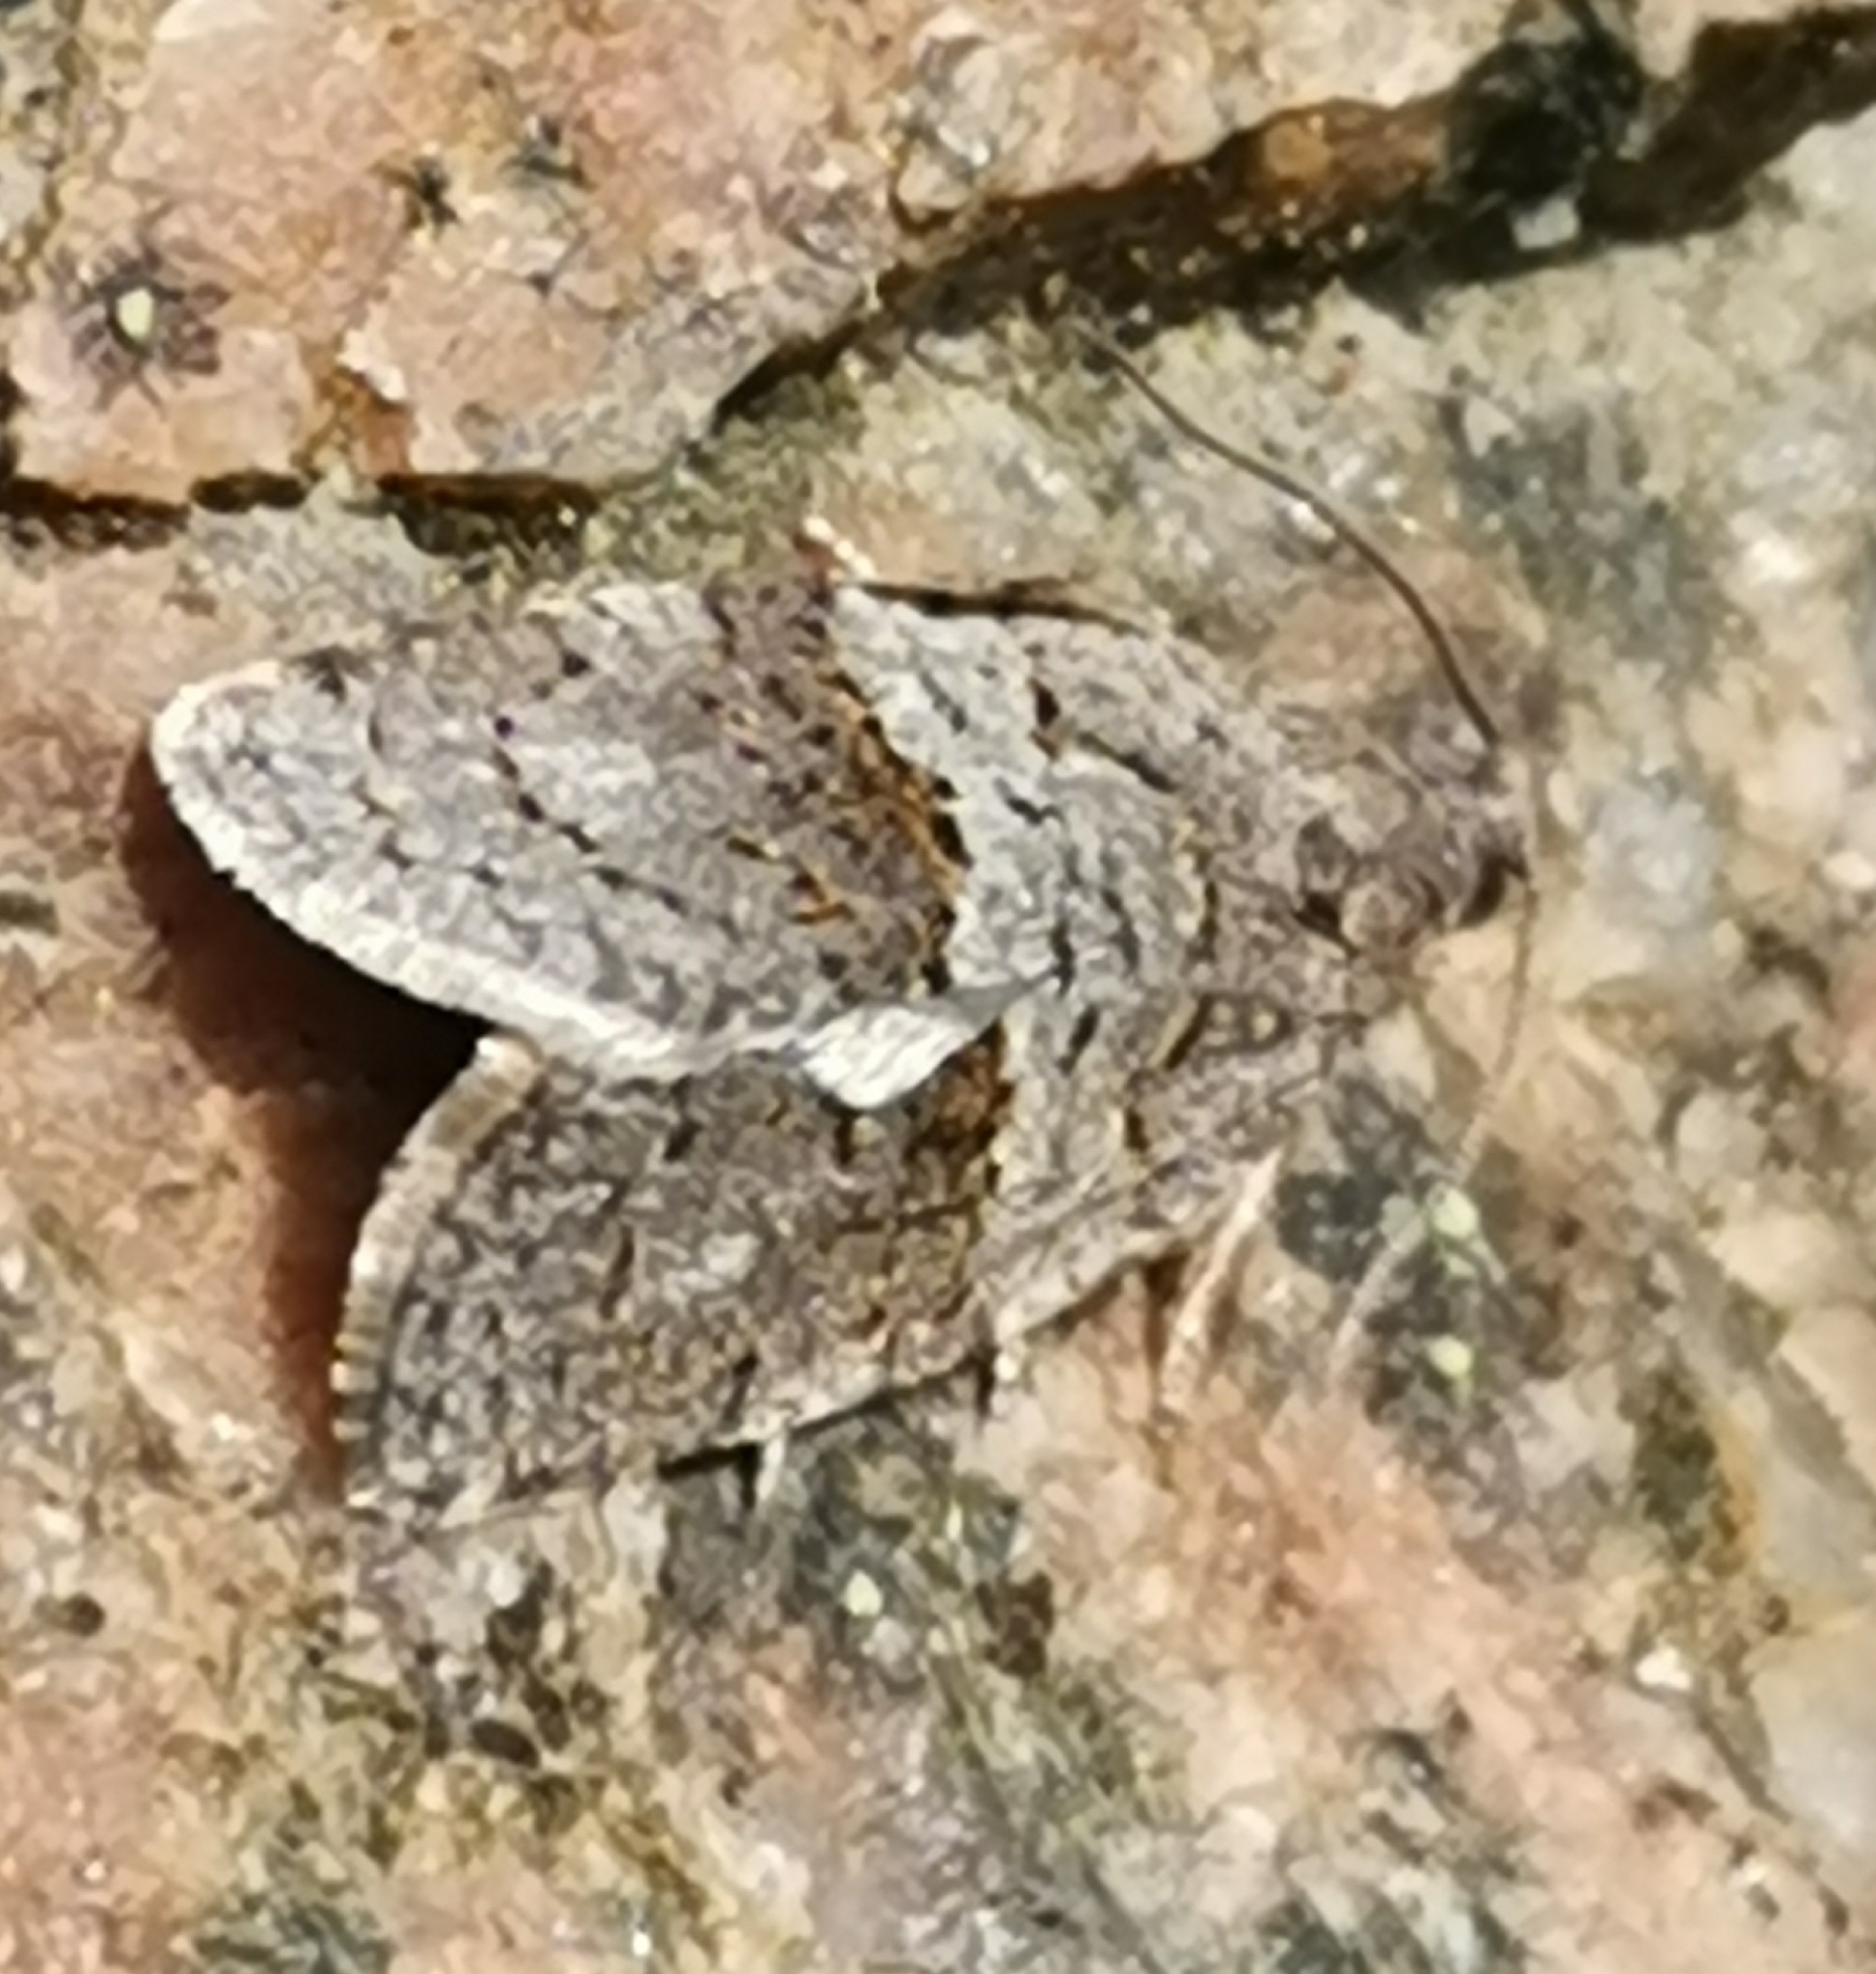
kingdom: Animalia
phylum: Arthropoda
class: Insecta
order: Lepidoptera
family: Tortricidae
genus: Syndemis
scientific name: Syndemis musculana
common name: Dark-barred twist
